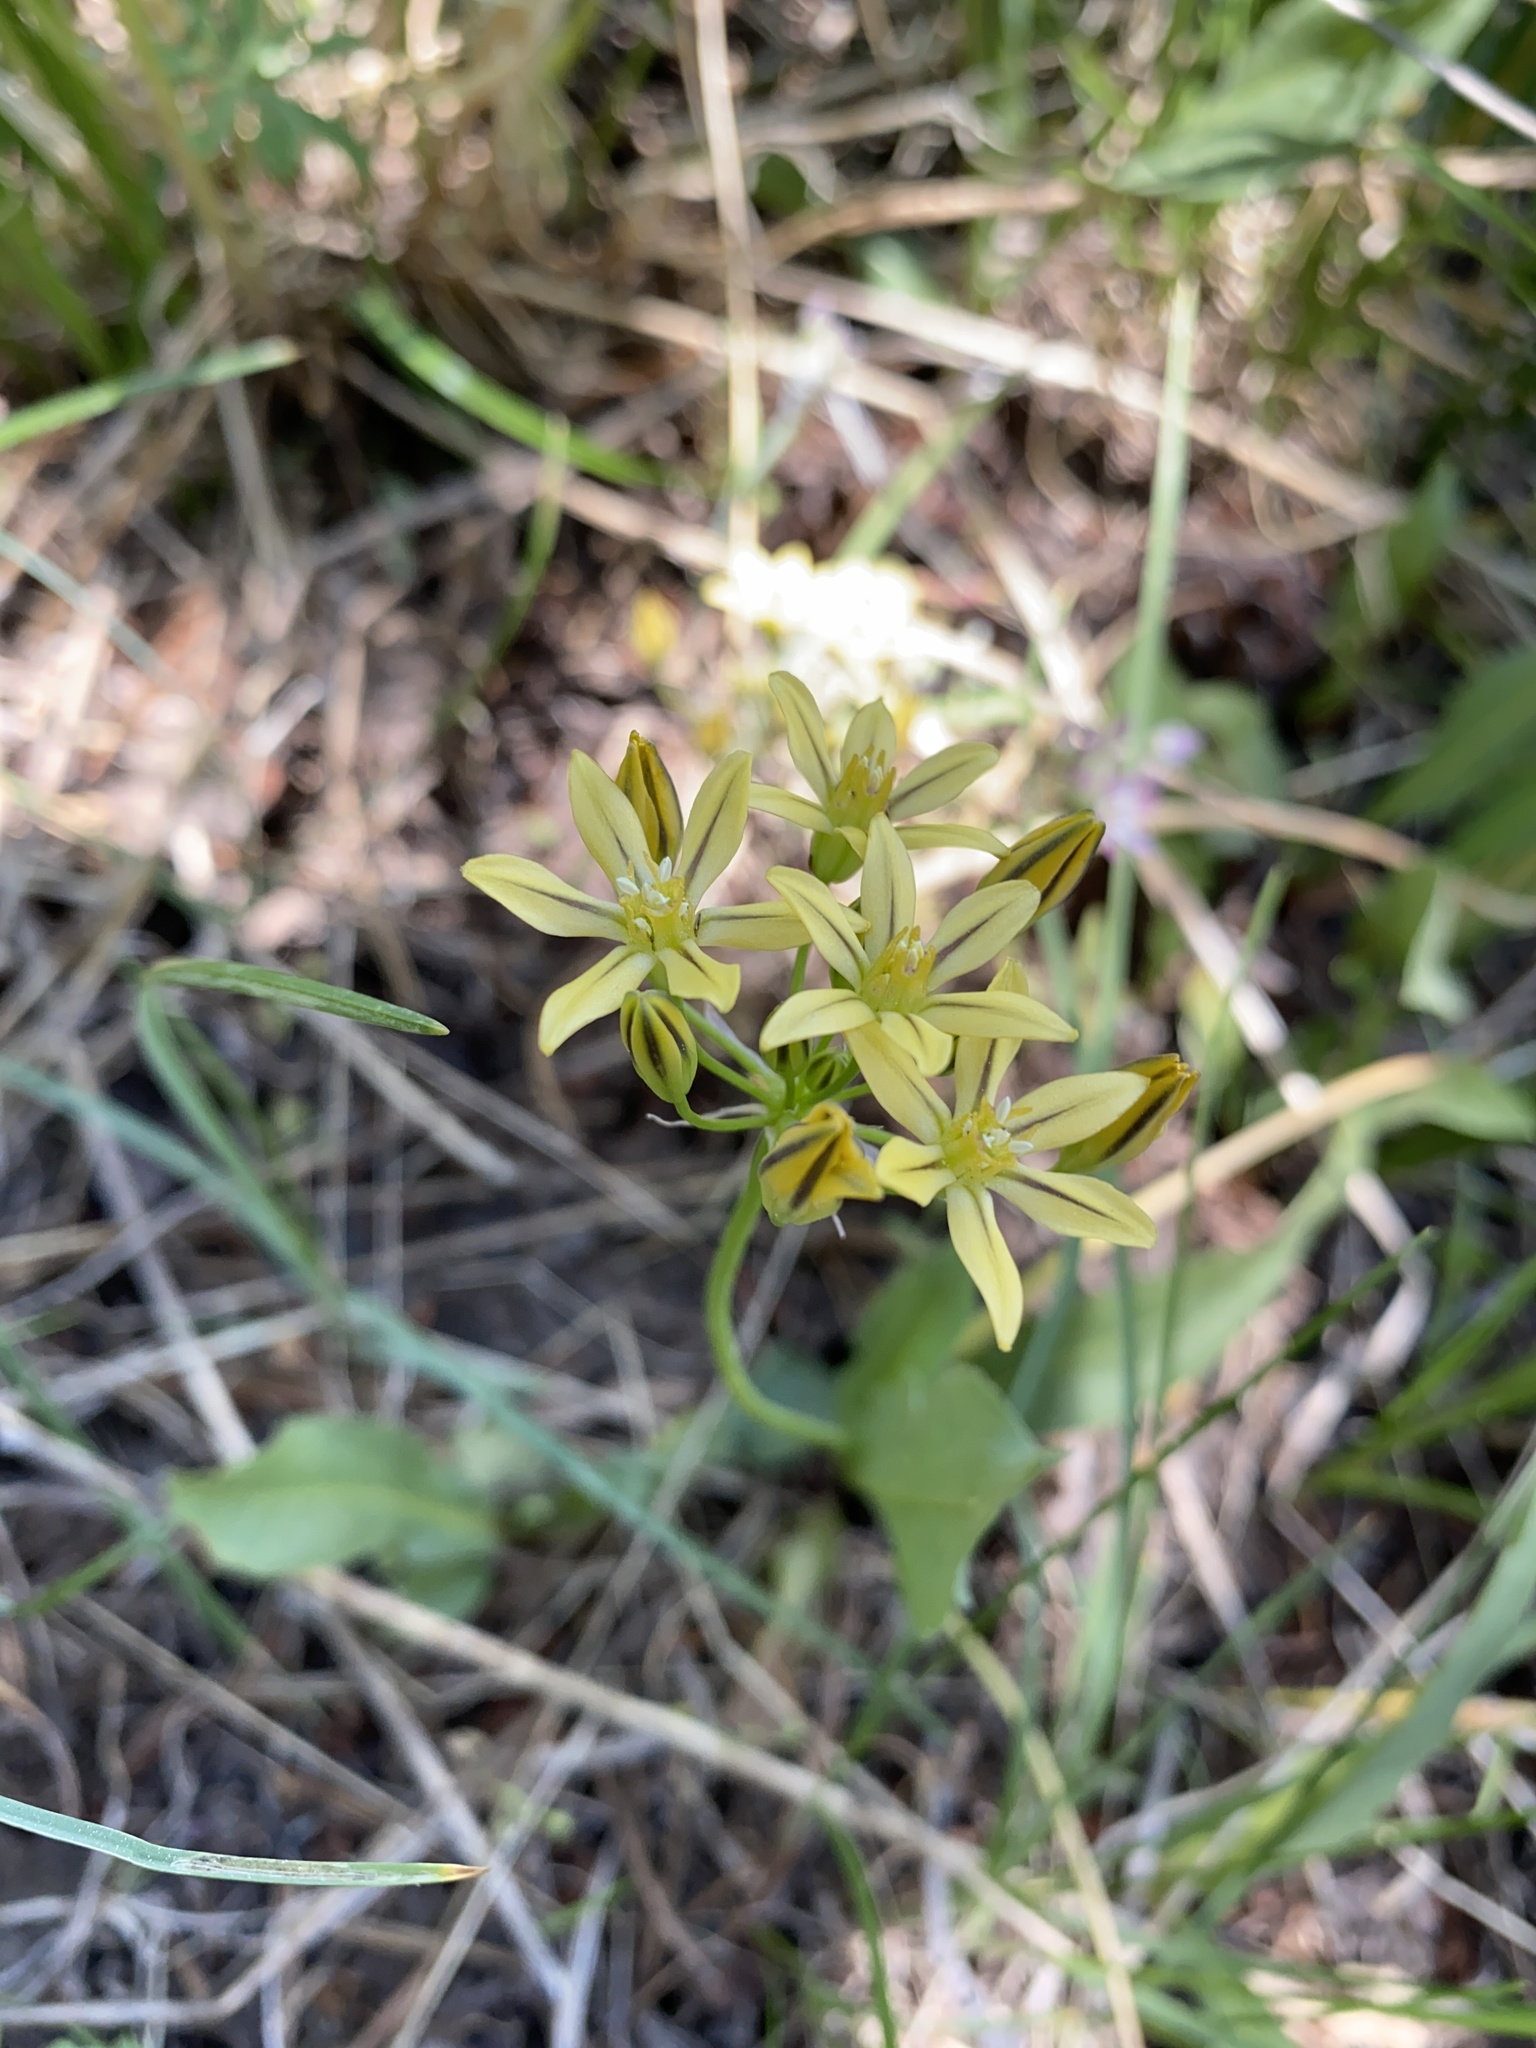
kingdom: Plantae
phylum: Tracheophyta
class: Liliopsida
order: Asparagales
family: Asparagaceae
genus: Triteleia
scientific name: Triteleia ixioides
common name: Yellow-brodiaea
